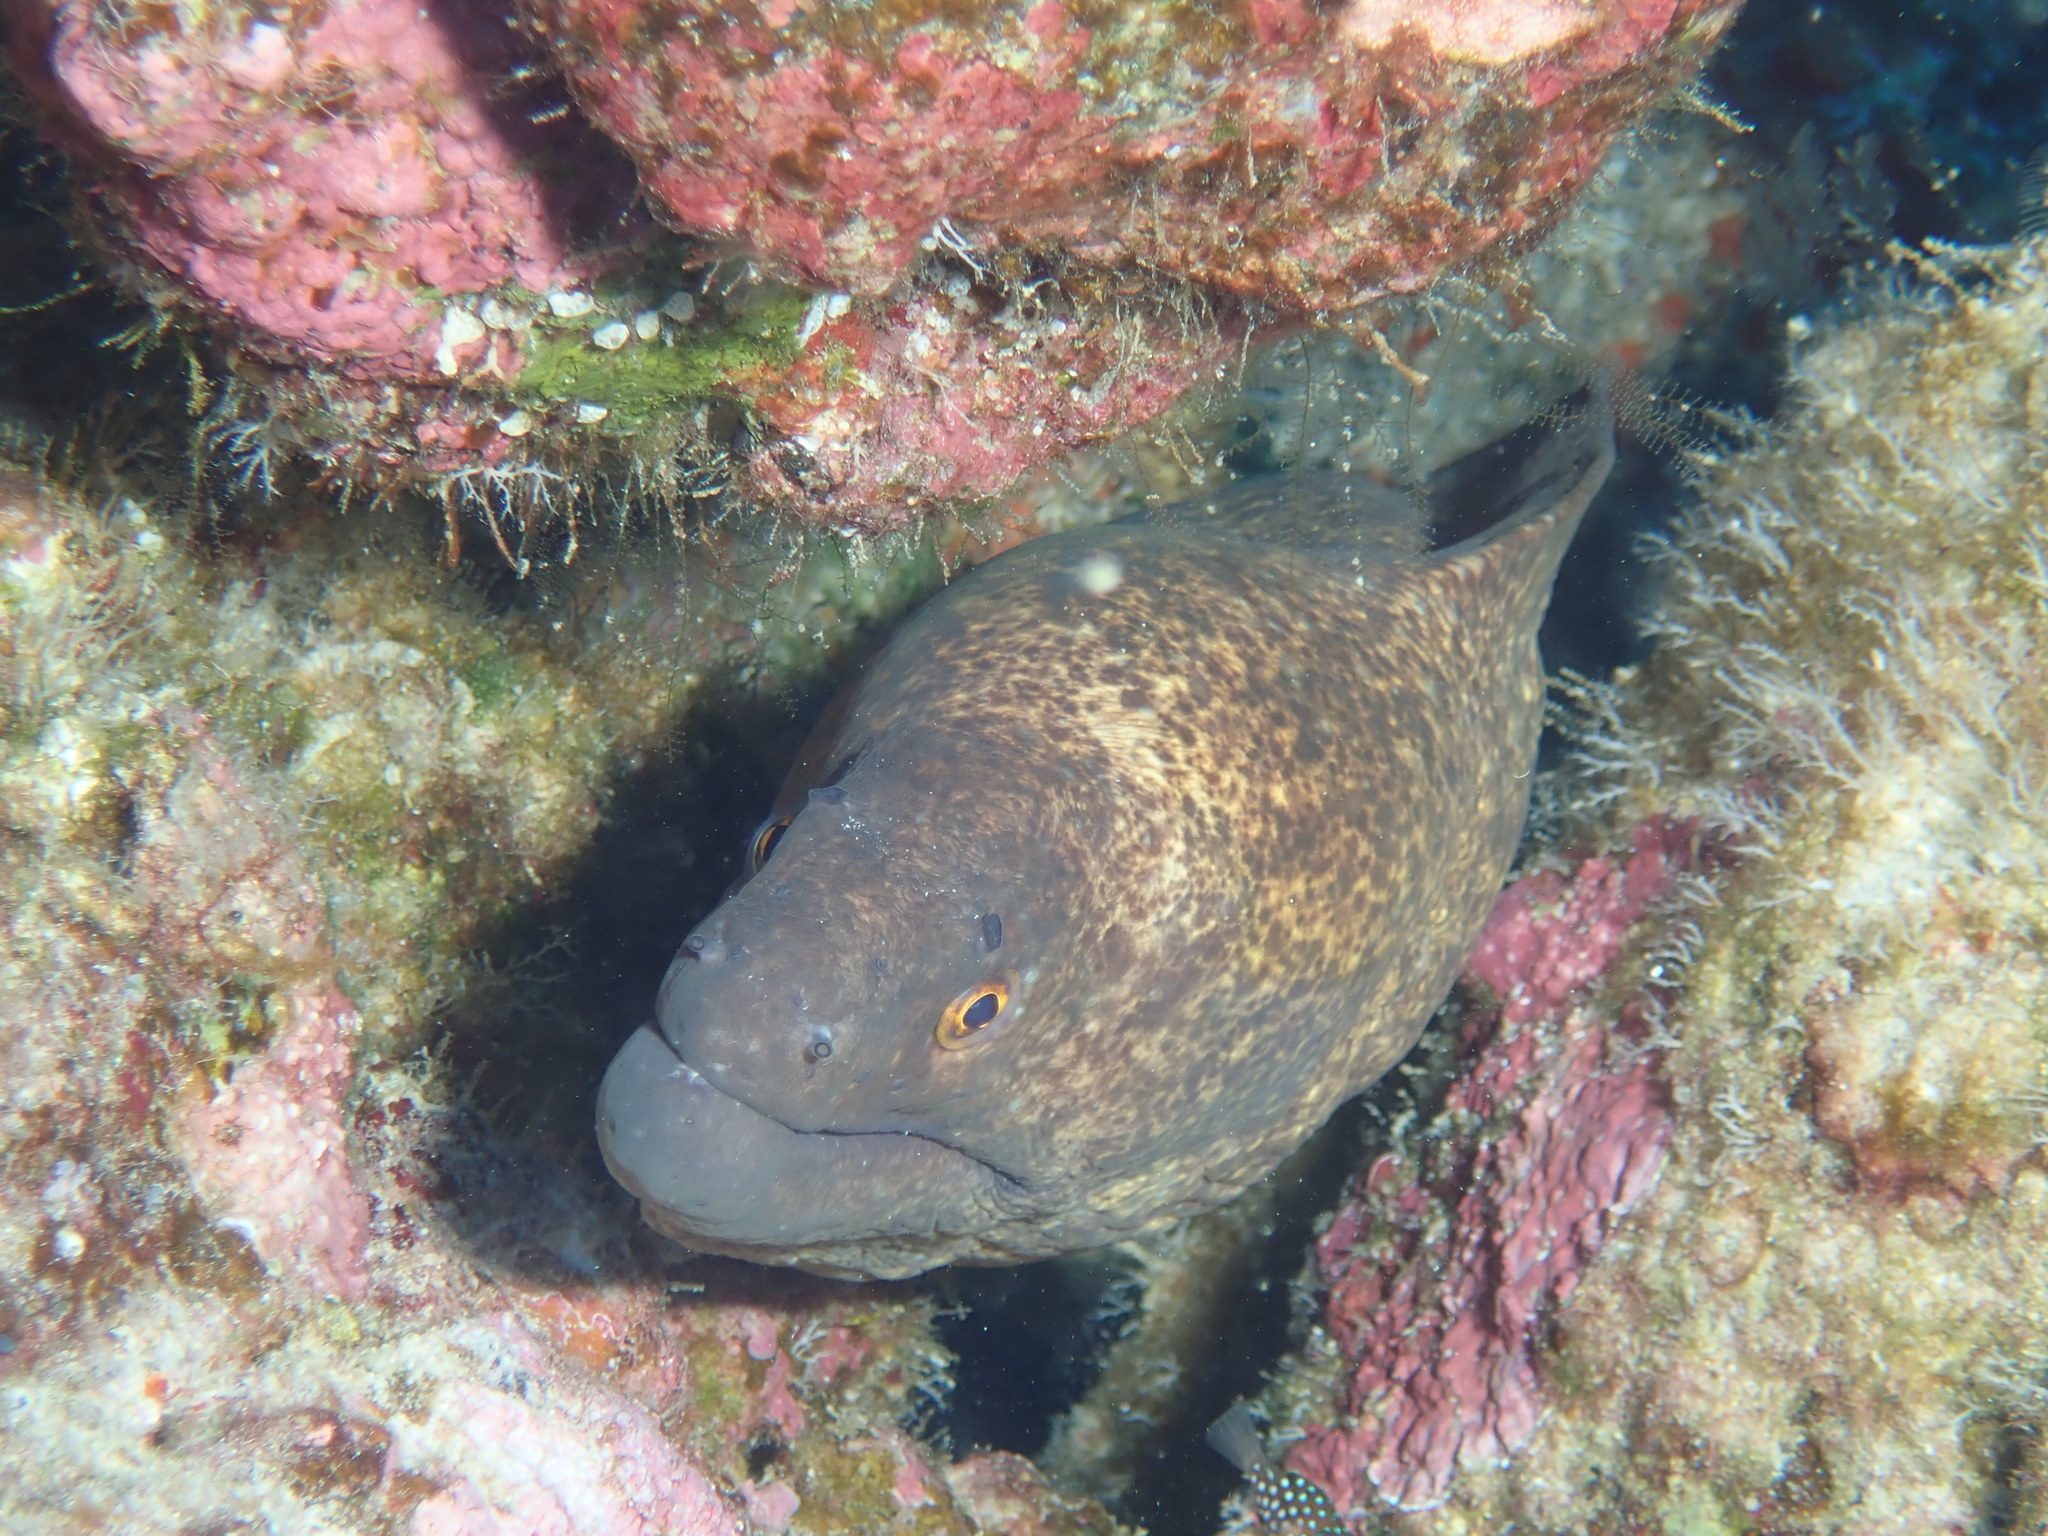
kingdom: Animalia
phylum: Chordata
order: Anguilliformes
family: Muraenidae
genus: Gymnothorax
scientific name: Gymnothorax flavimarginatus
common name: Yellow-edged moray
